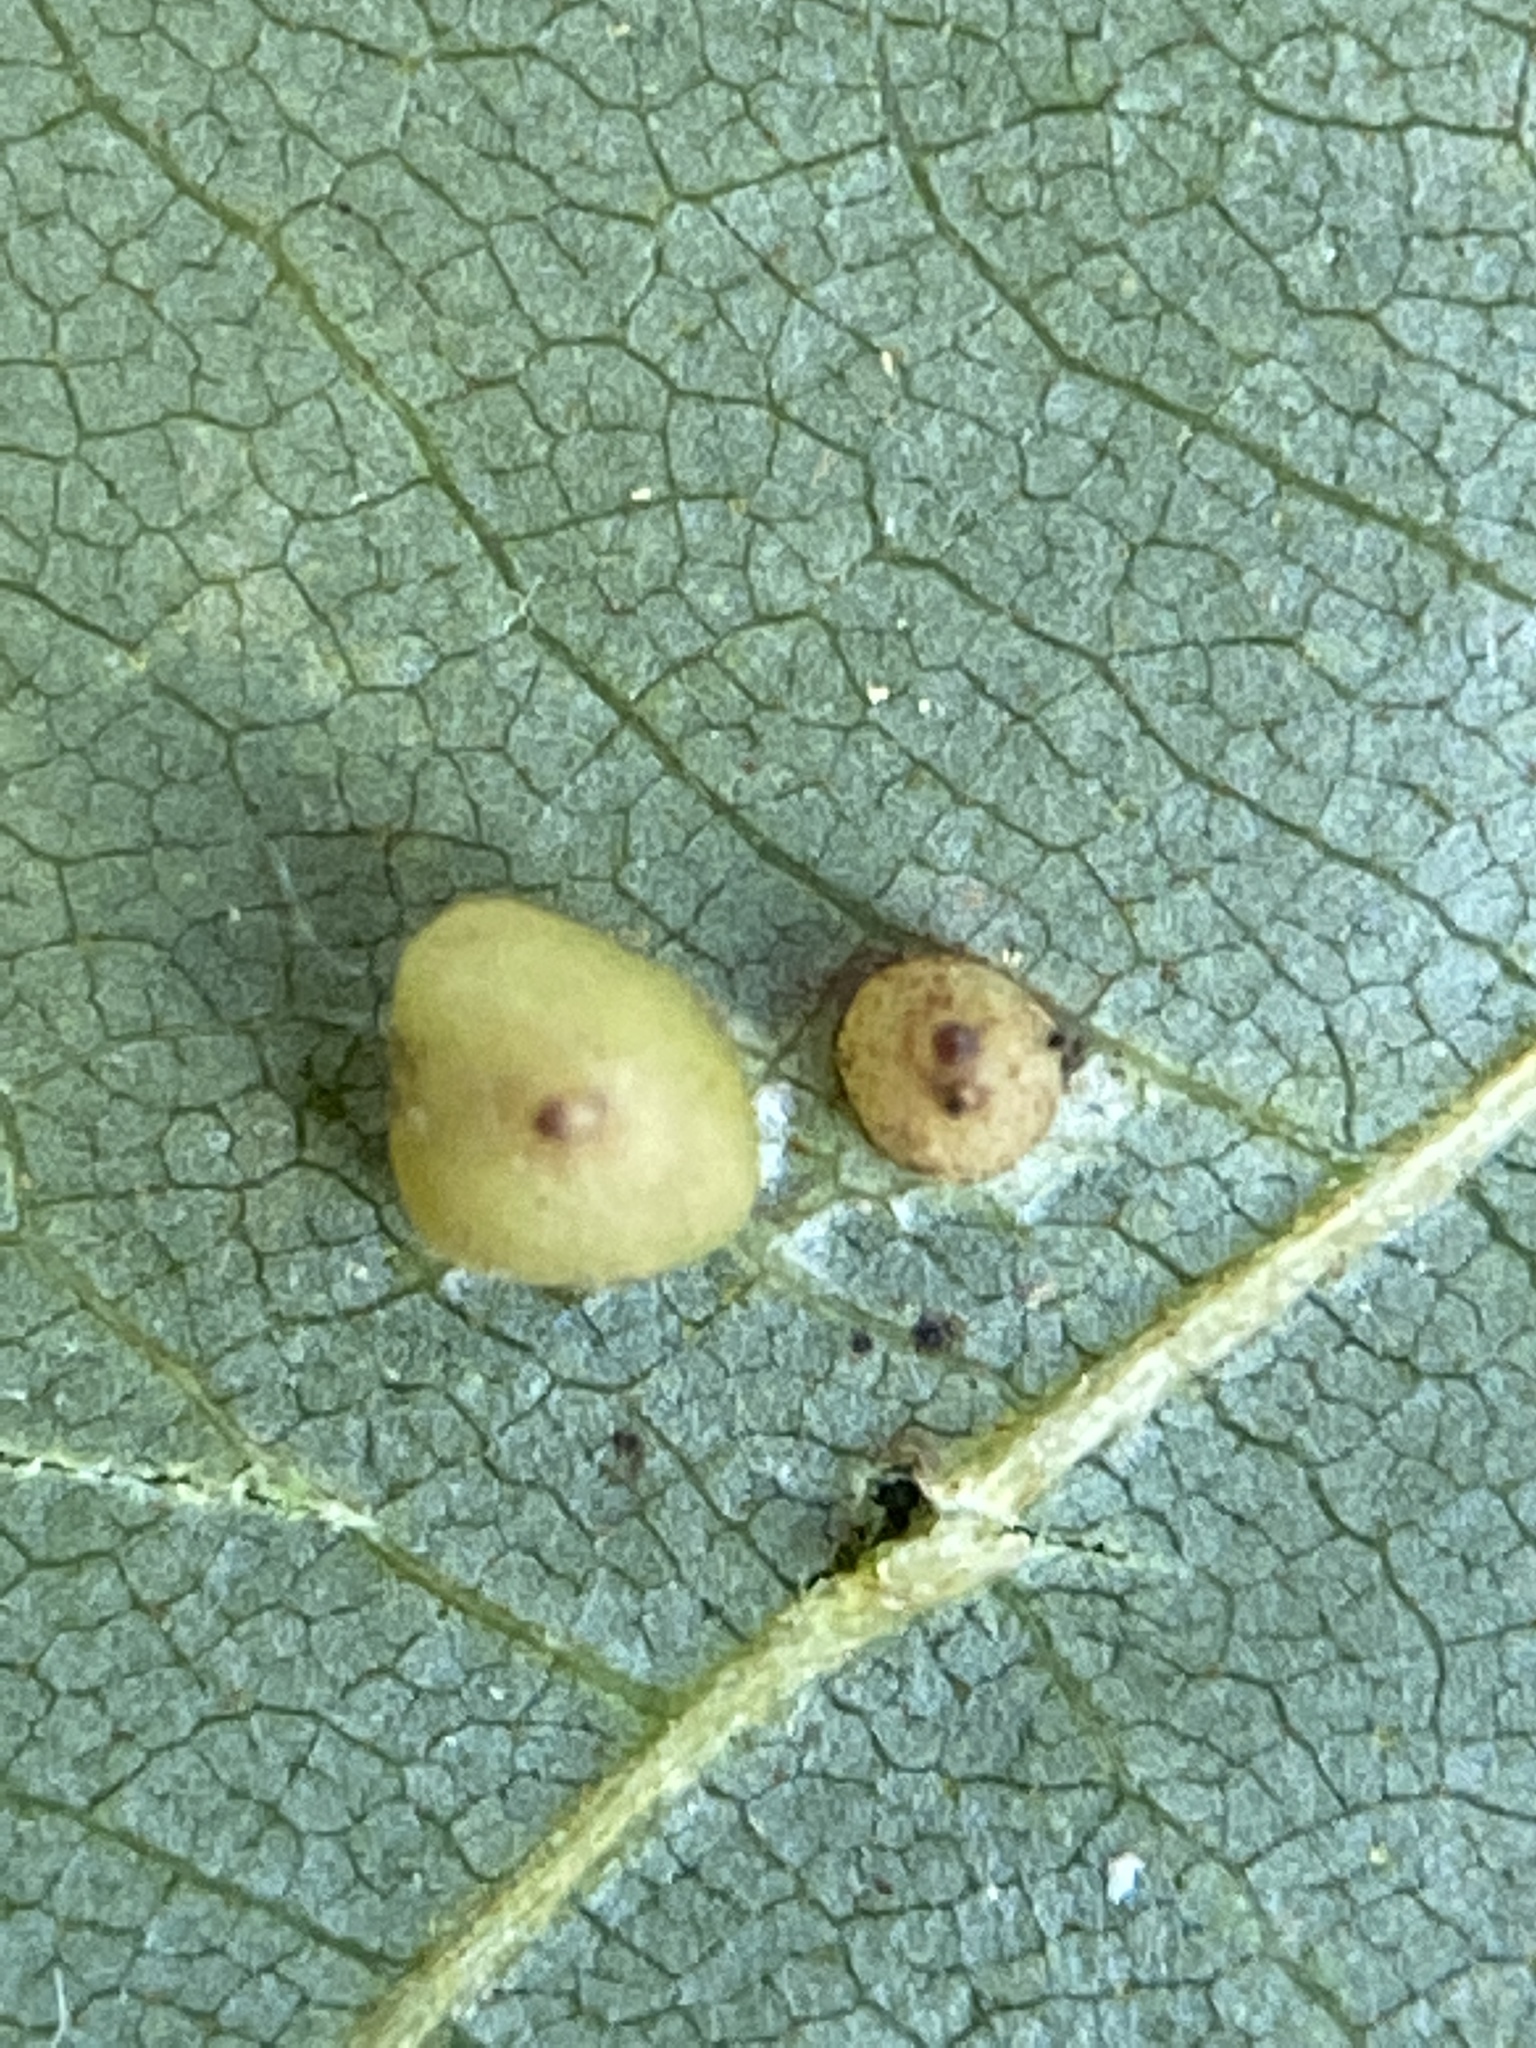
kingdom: Animalia
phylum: Arthropoda
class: Insecta
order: Diptera
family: Cecidomyiidae
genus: Caryomyia
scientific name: Caryomyia caryae
